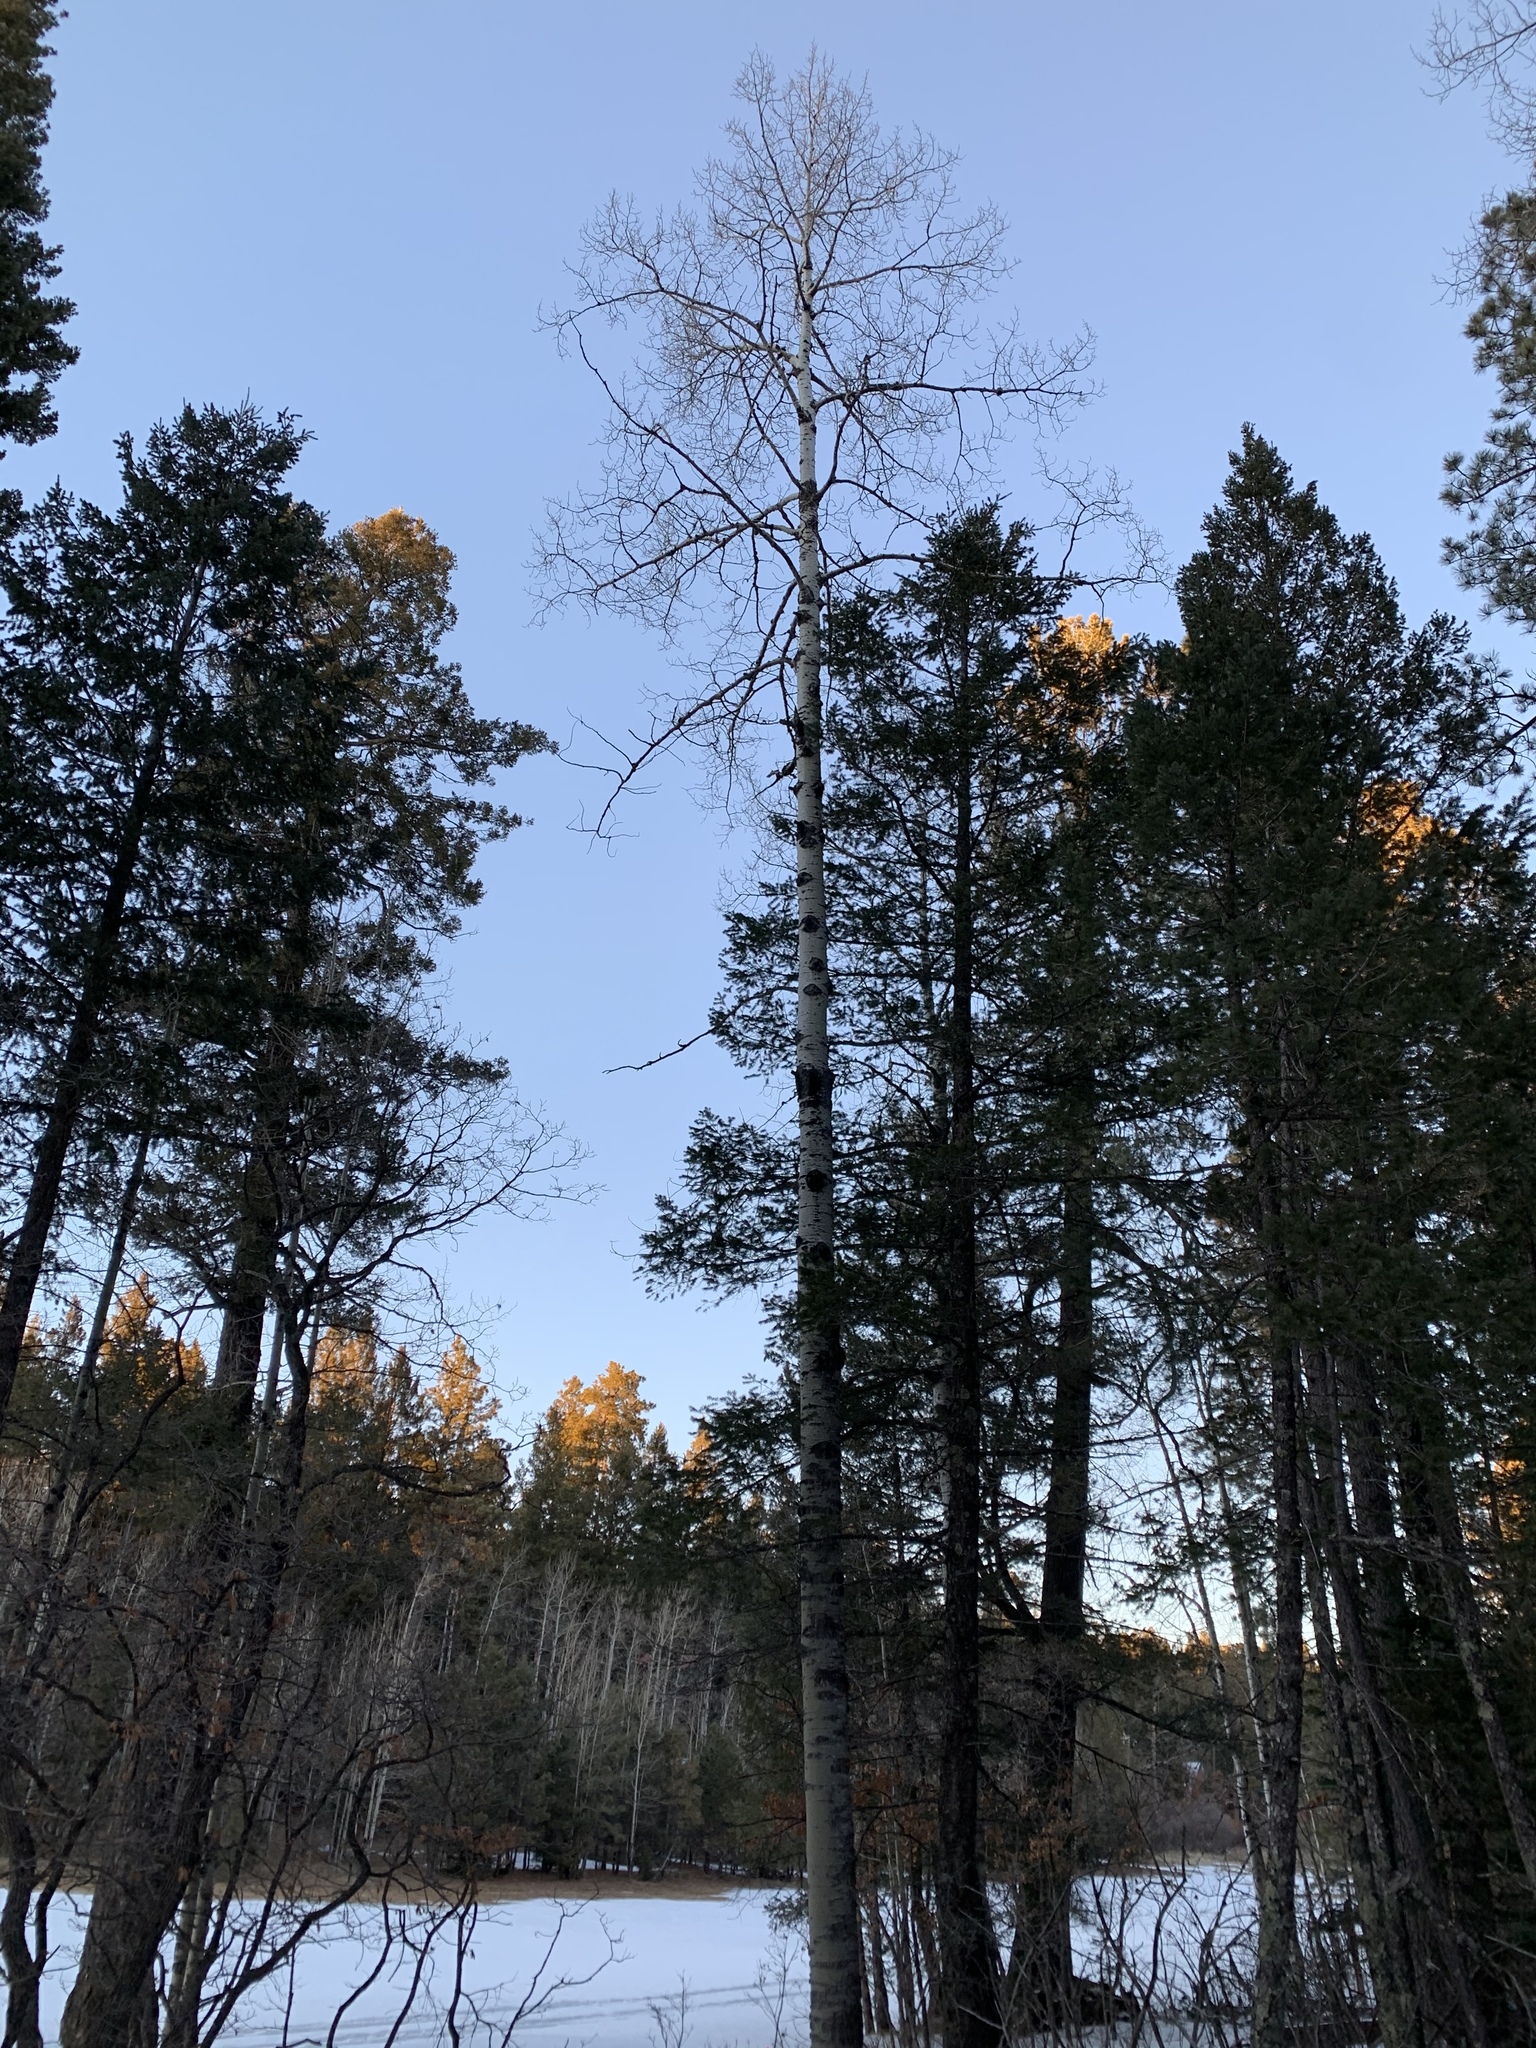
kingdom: Plantae
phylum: Tracheophyta
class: Magnoliopsida
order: Malpighiales
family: Salicaceae
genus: Populus
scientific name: Populus tremuloides
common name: Quaking aspen
